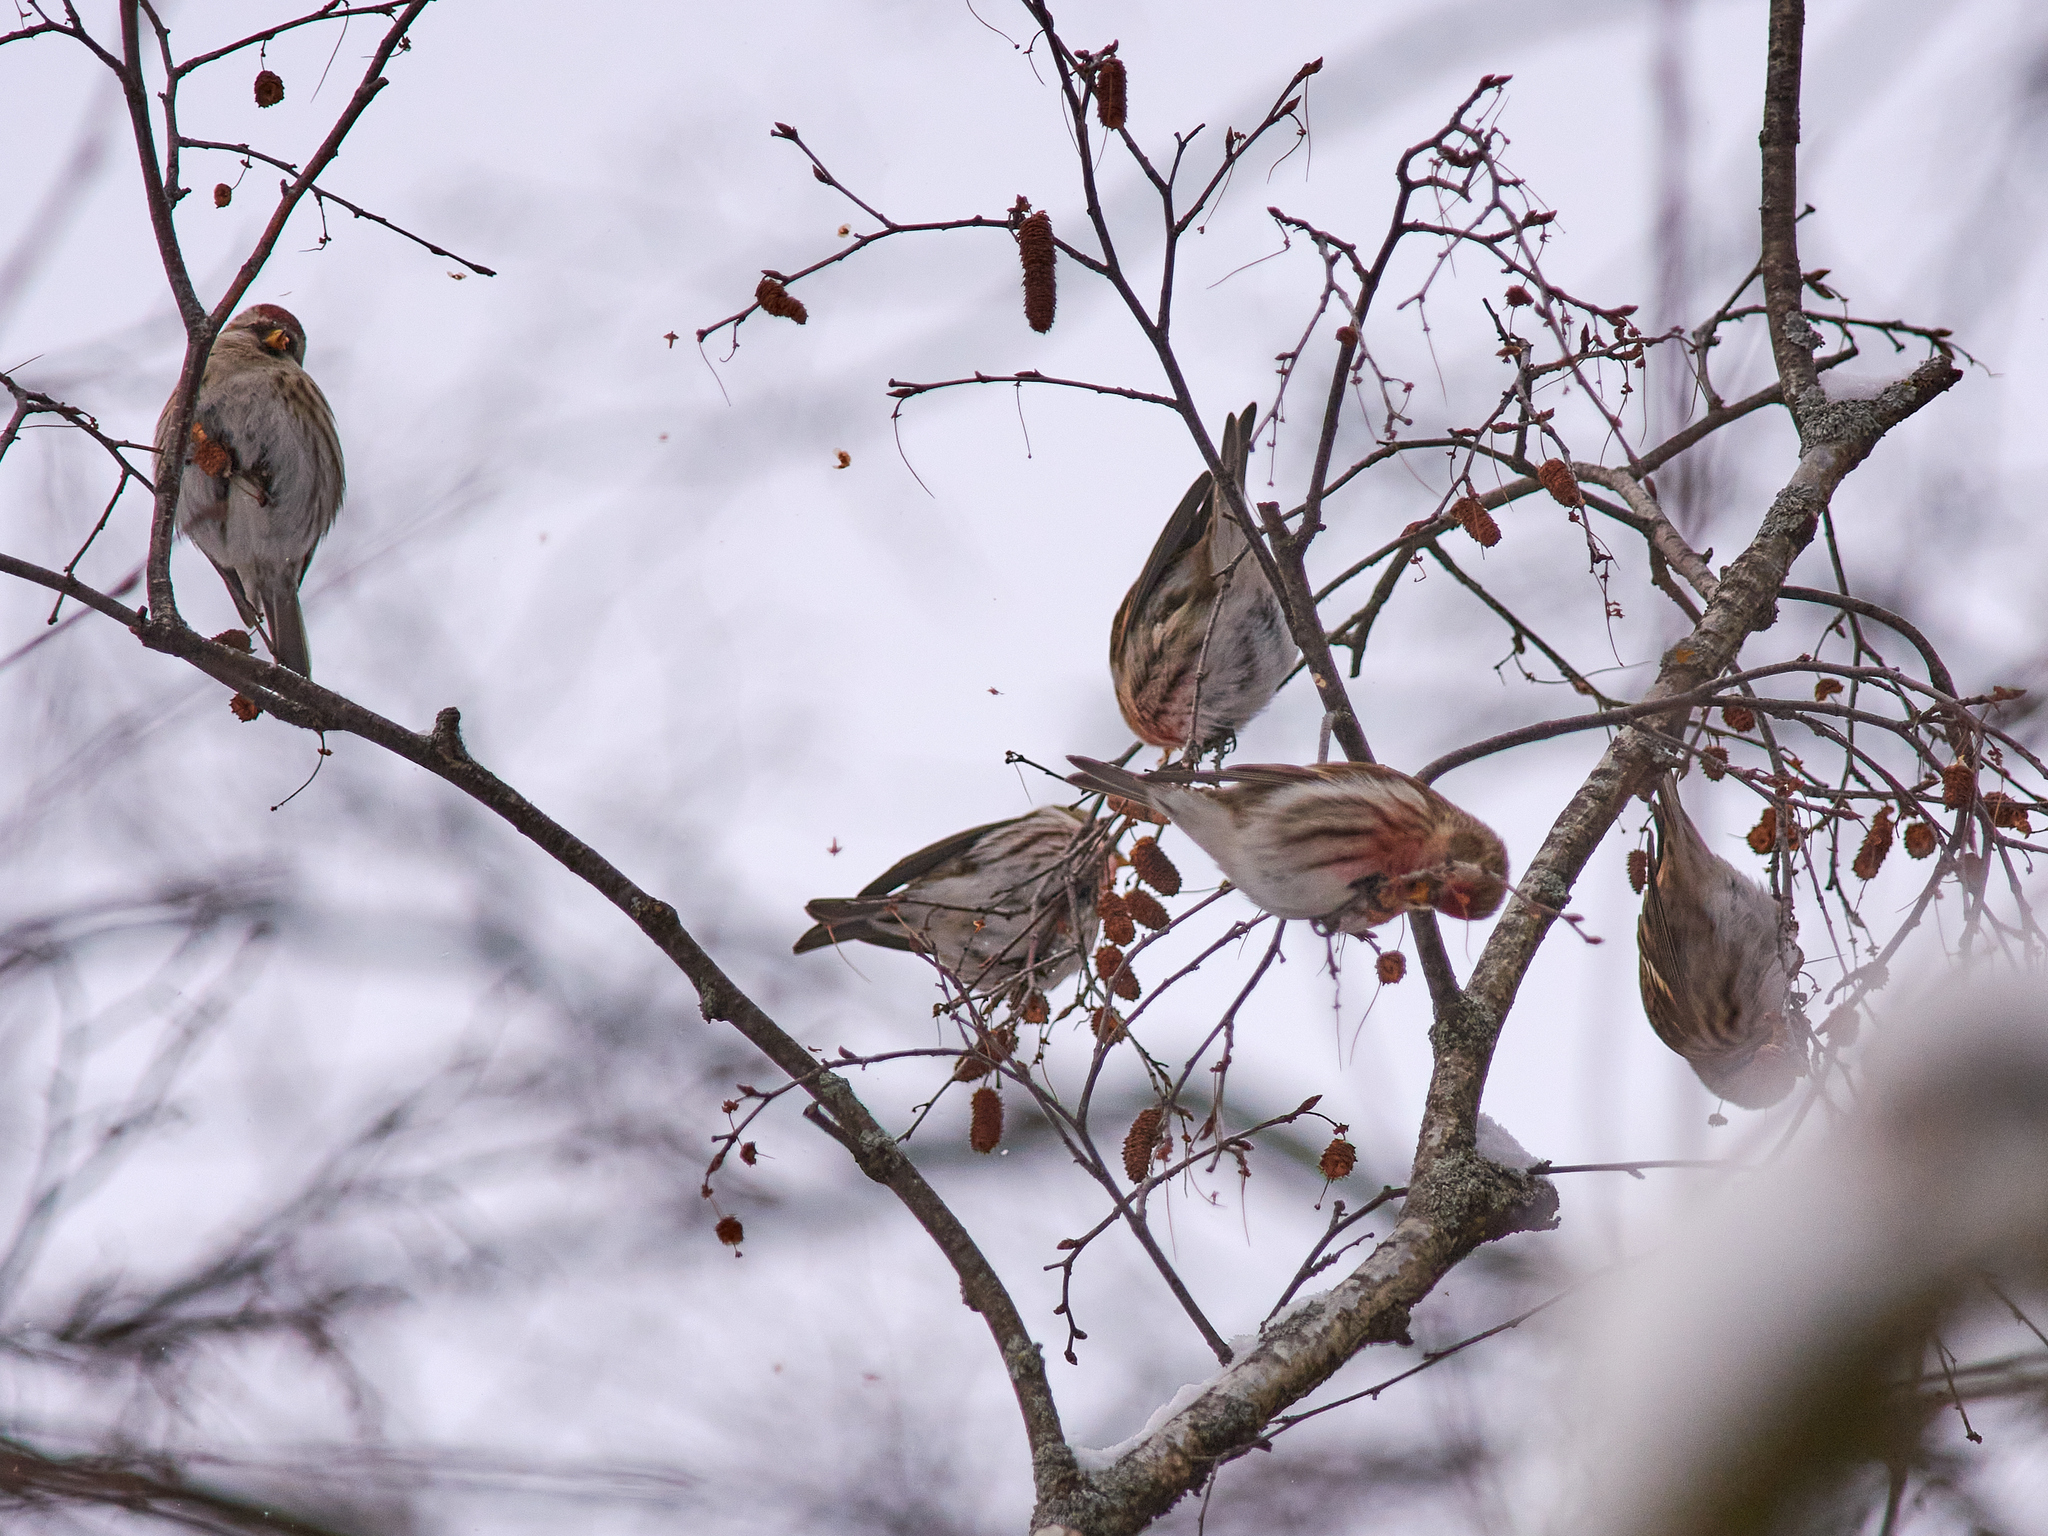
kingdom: Animalia
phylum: Chordata
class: Aves
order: Passeriformes
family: Fringillidae
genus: Acanthis
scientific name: Acanthis flammea
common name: Common redpoll
